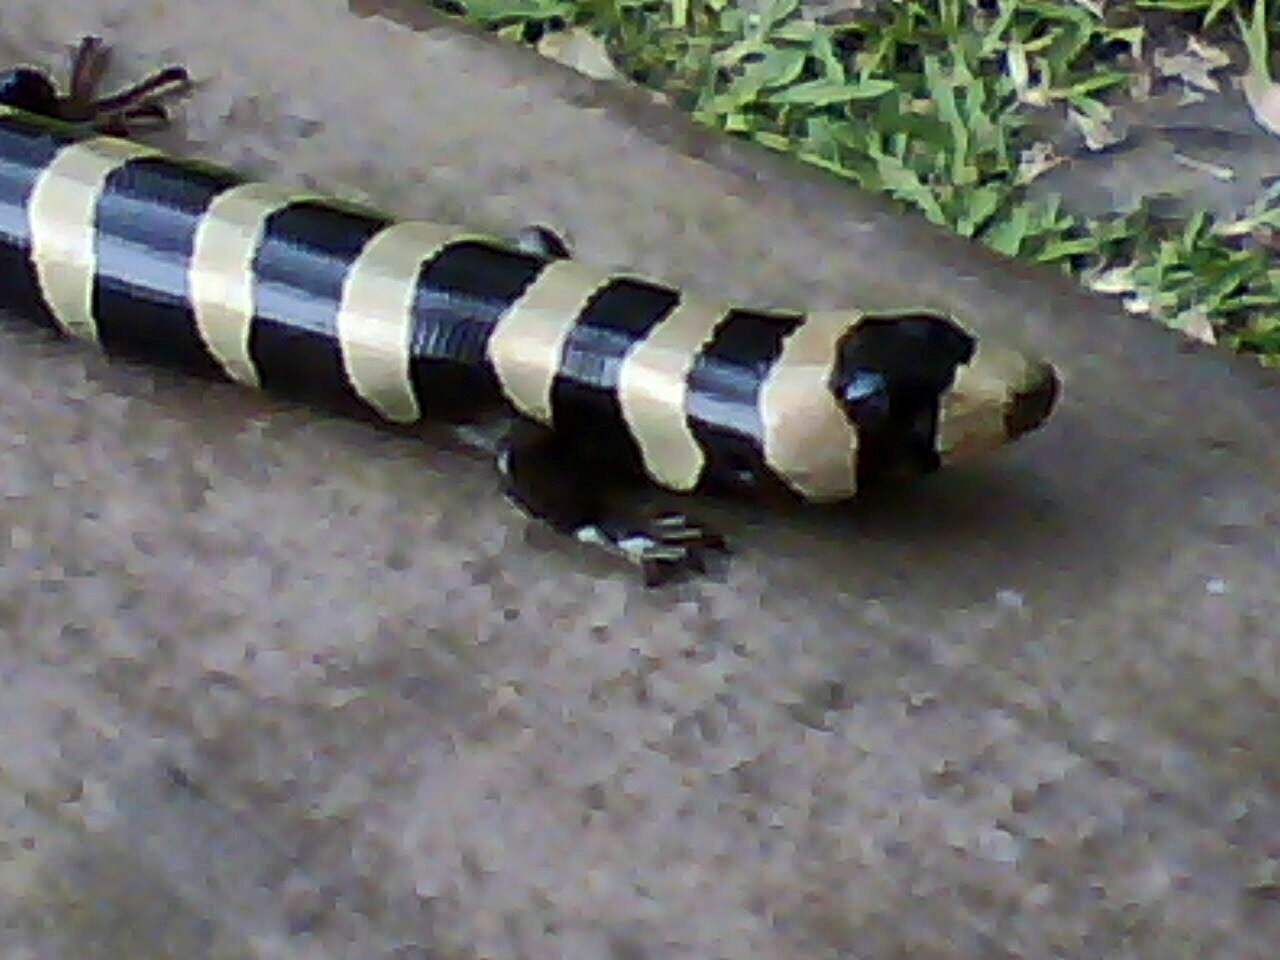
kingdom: Animalia
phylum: Chordata
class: Squamata
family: Diploglossidae
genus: Diploglossus
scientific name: Diploglossus fasciatus
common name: Banded galliwasp
